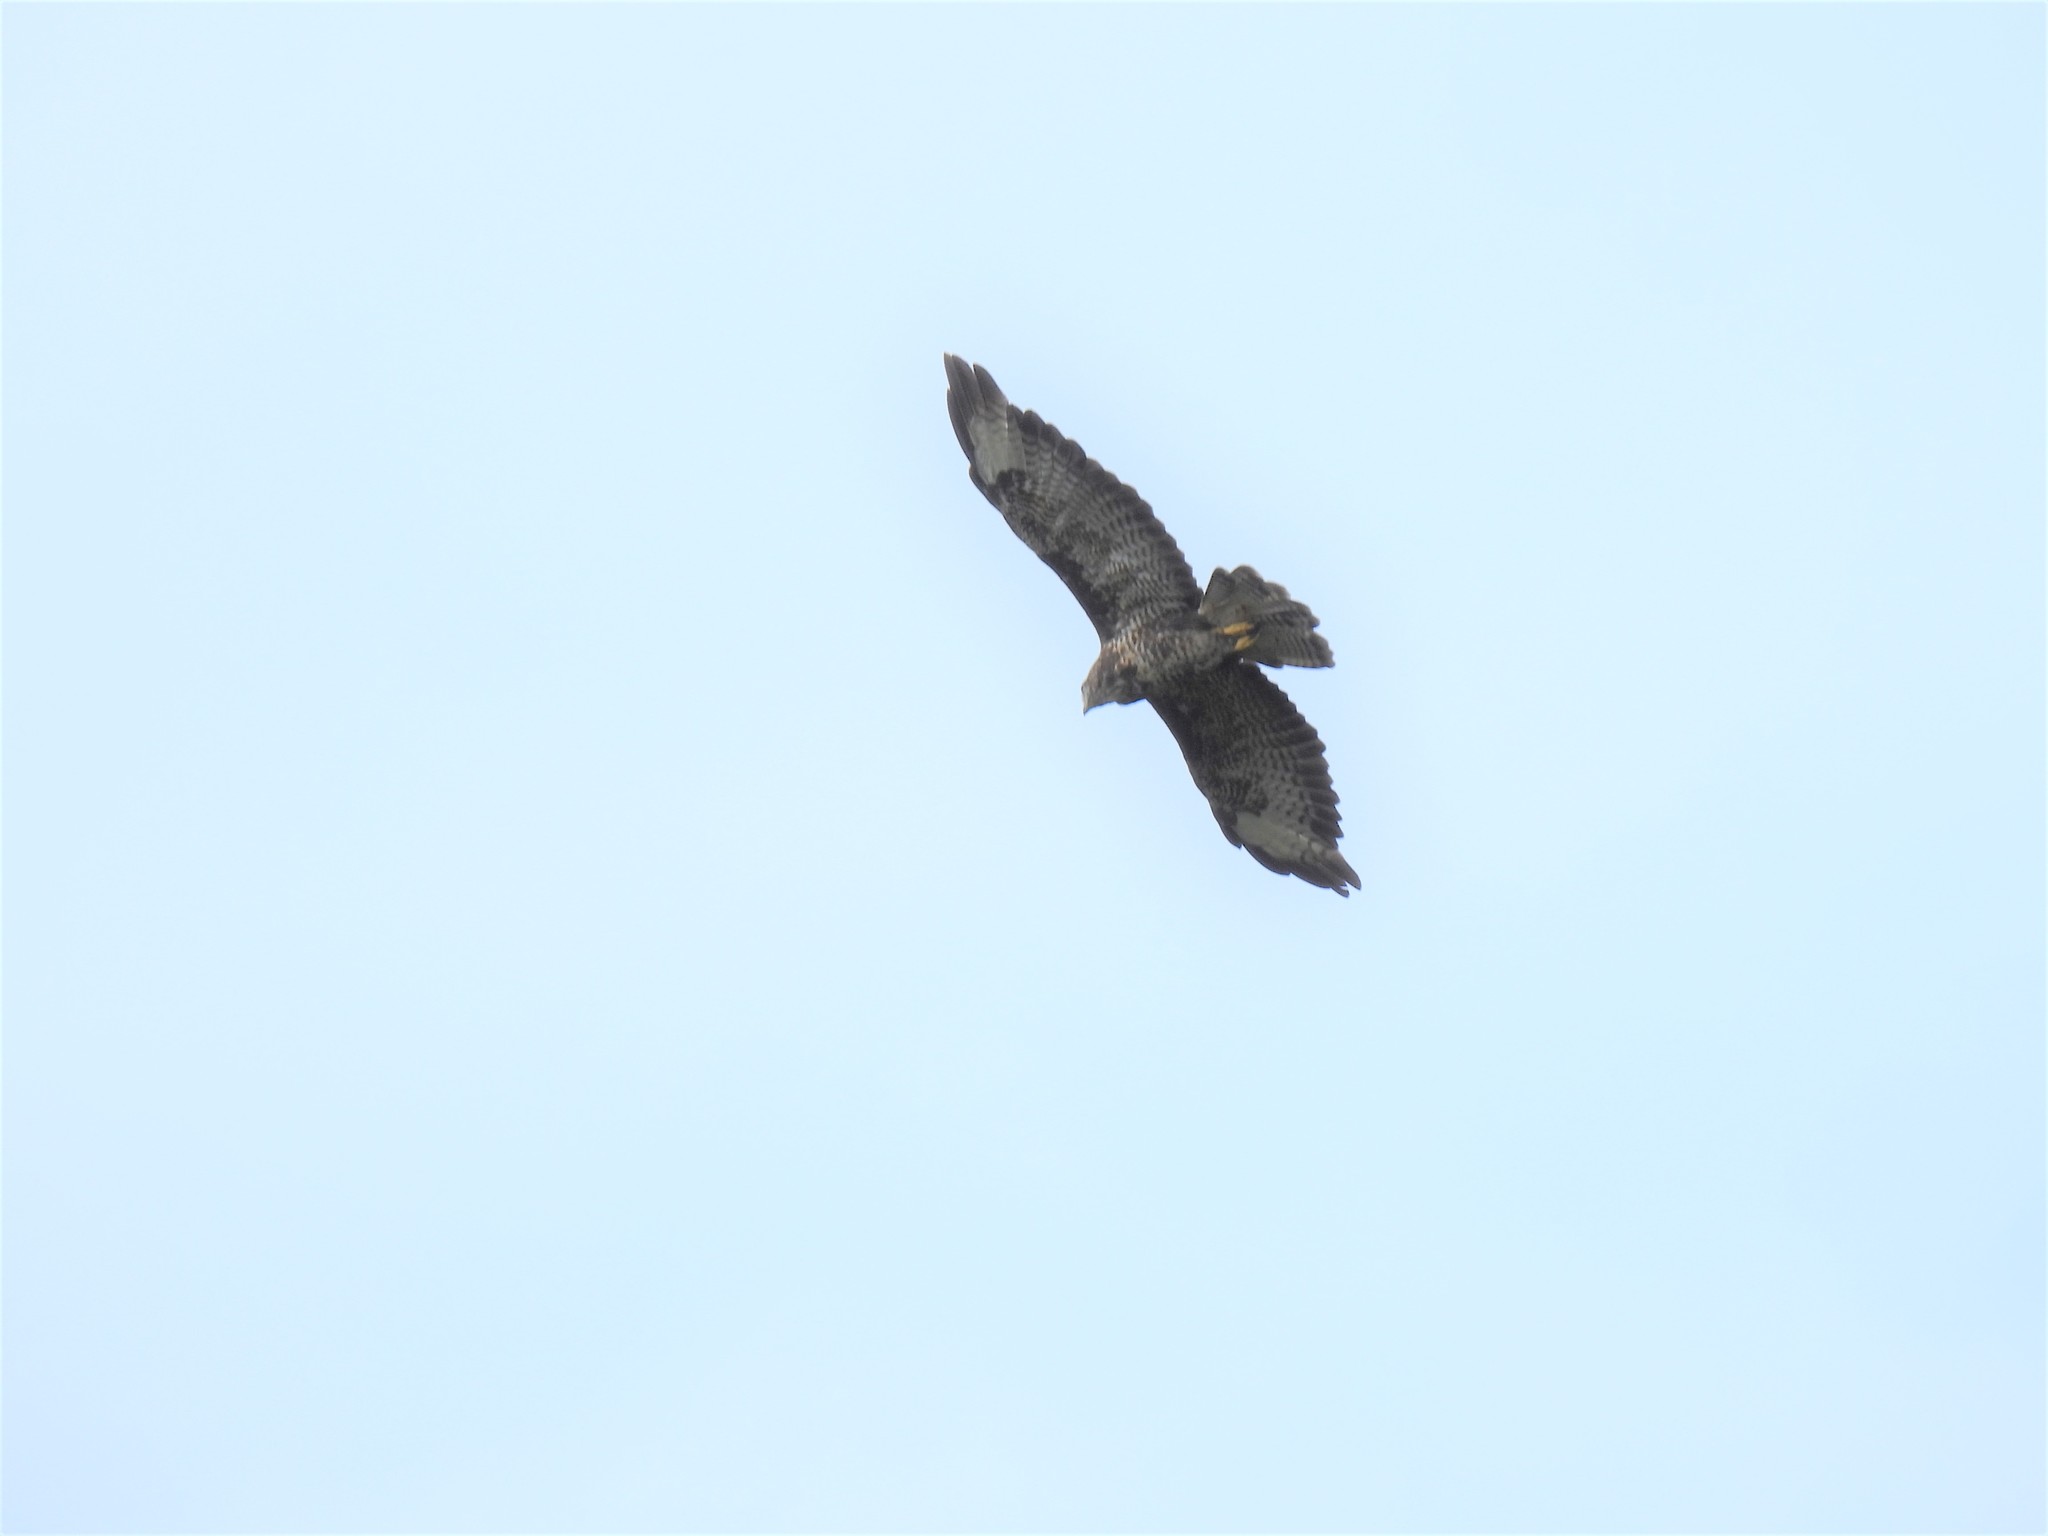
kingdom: Animalia
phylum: Chordata
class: Aves
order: Accipitriformes
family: Accipitridae
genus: Buteo
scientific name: Buteo buteo
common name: Common buzzard
